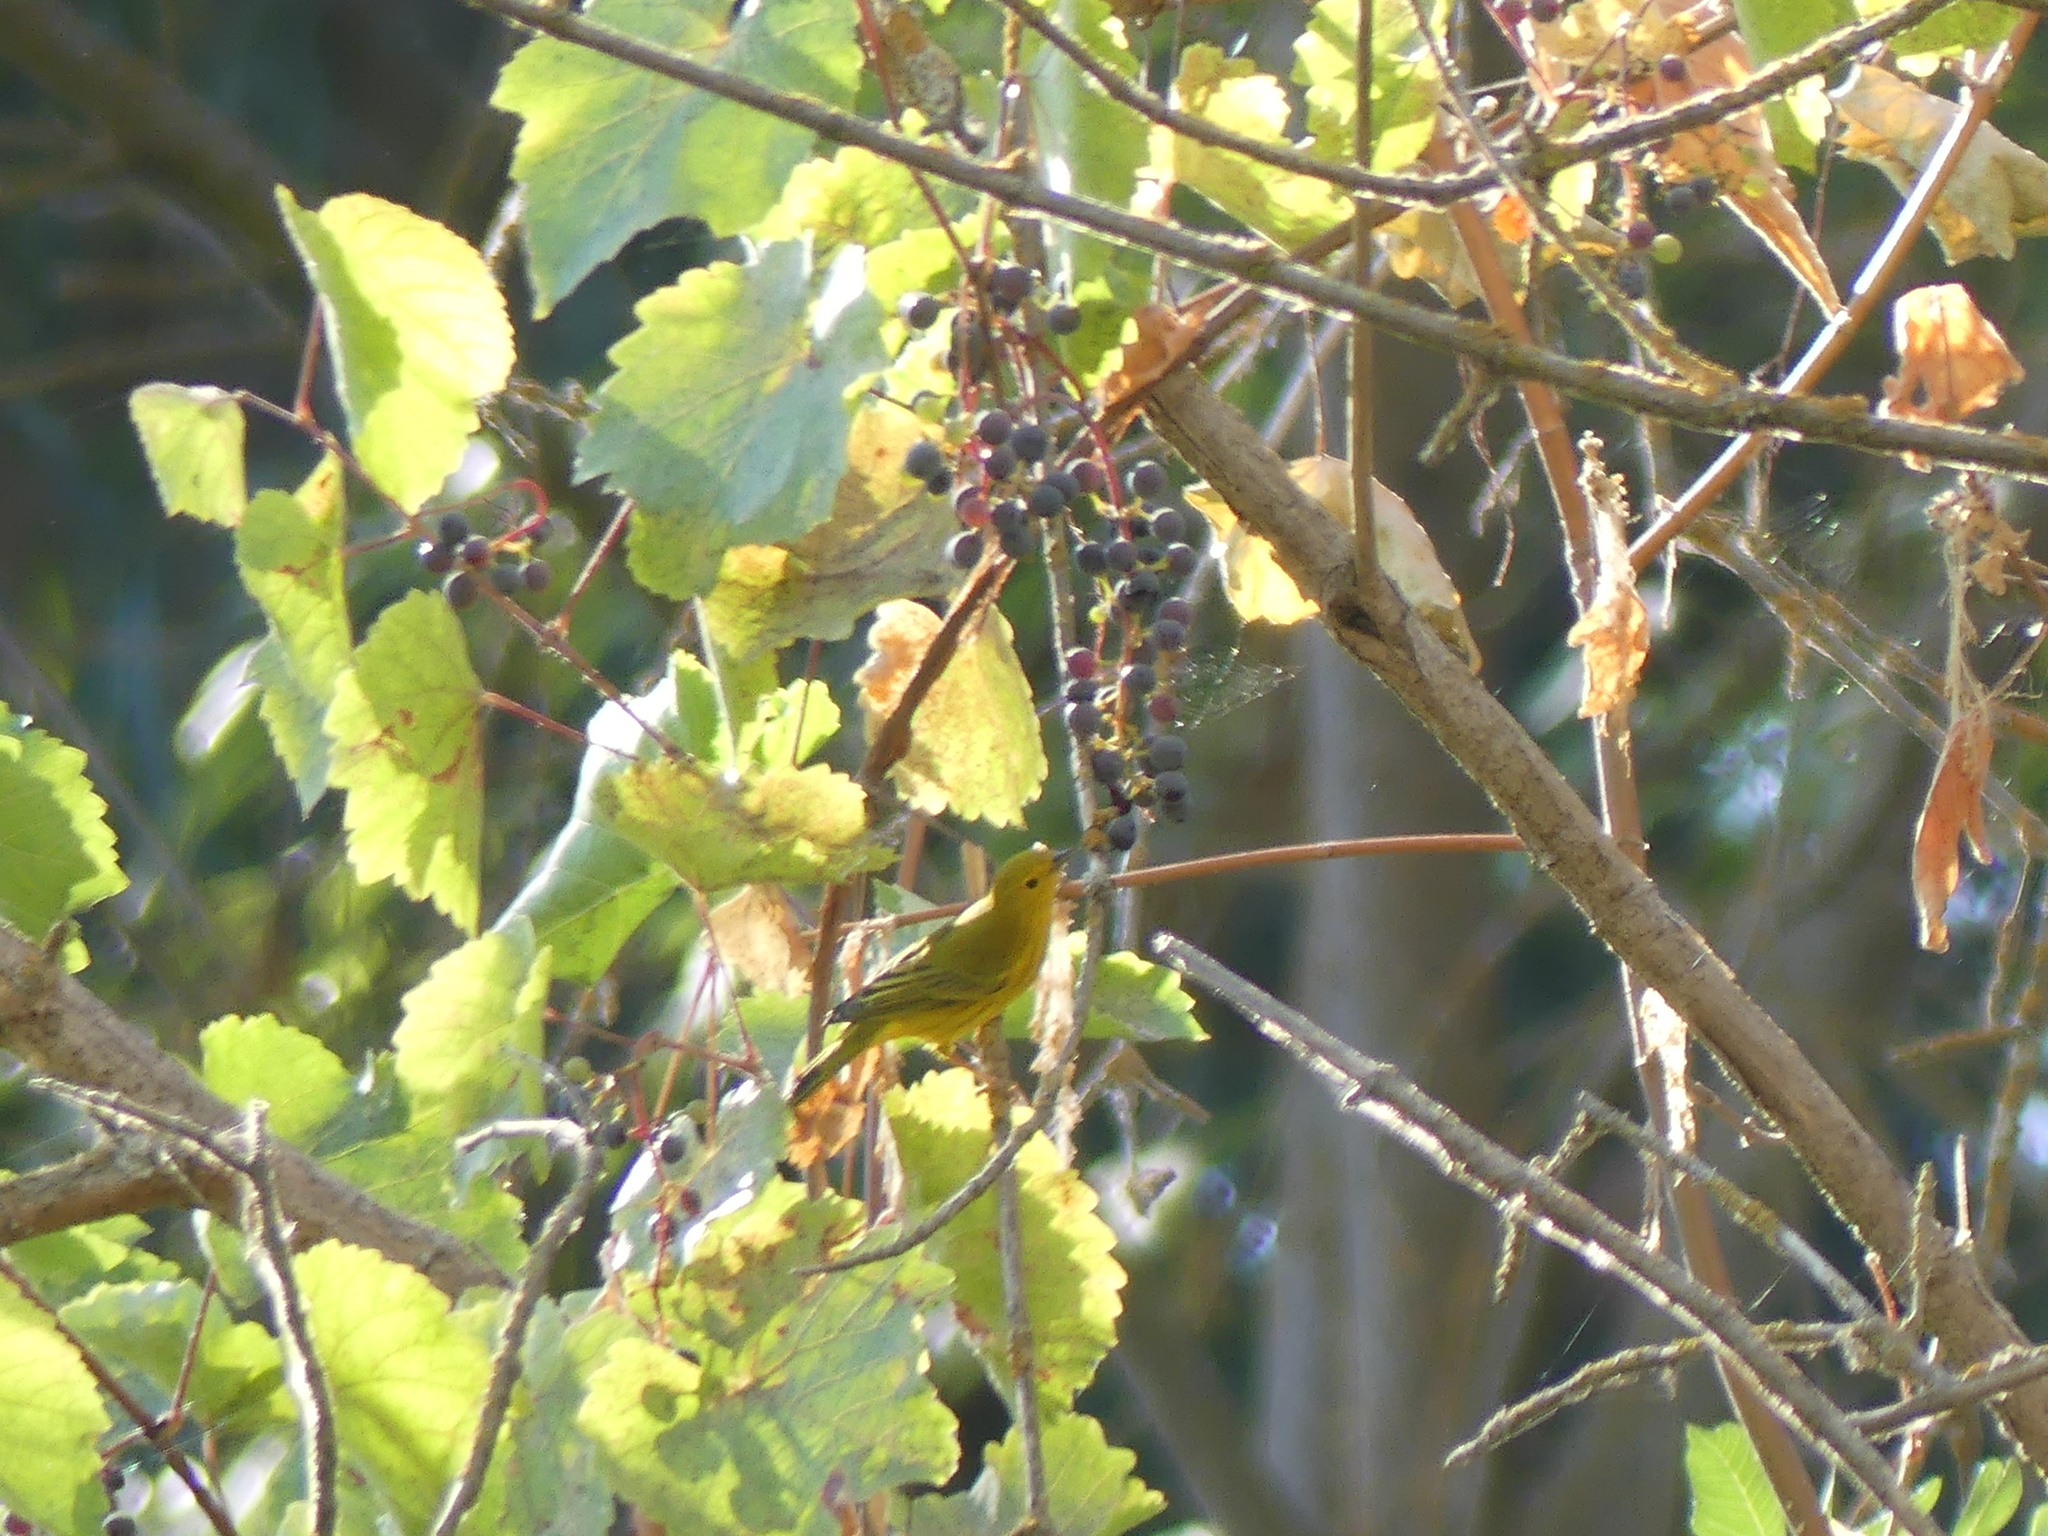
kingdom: Animalia
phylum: Chordata
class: Aves
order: Passeriformes
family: Parulidae
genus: Setophaga
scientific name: Setophaga petechia
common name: Yellow warbler
